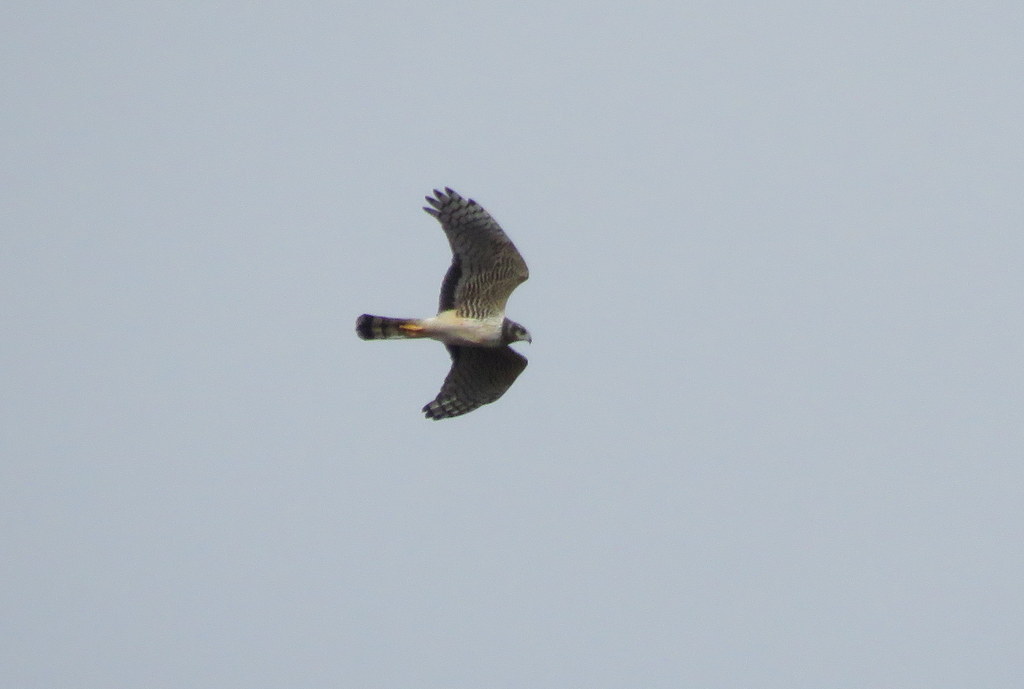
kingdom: Animalia
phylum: Chordata
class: Aves
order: Accipitriformes
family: Accipitridae
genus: Circus
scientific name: Circus buffoni
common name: Long-winged harrier
